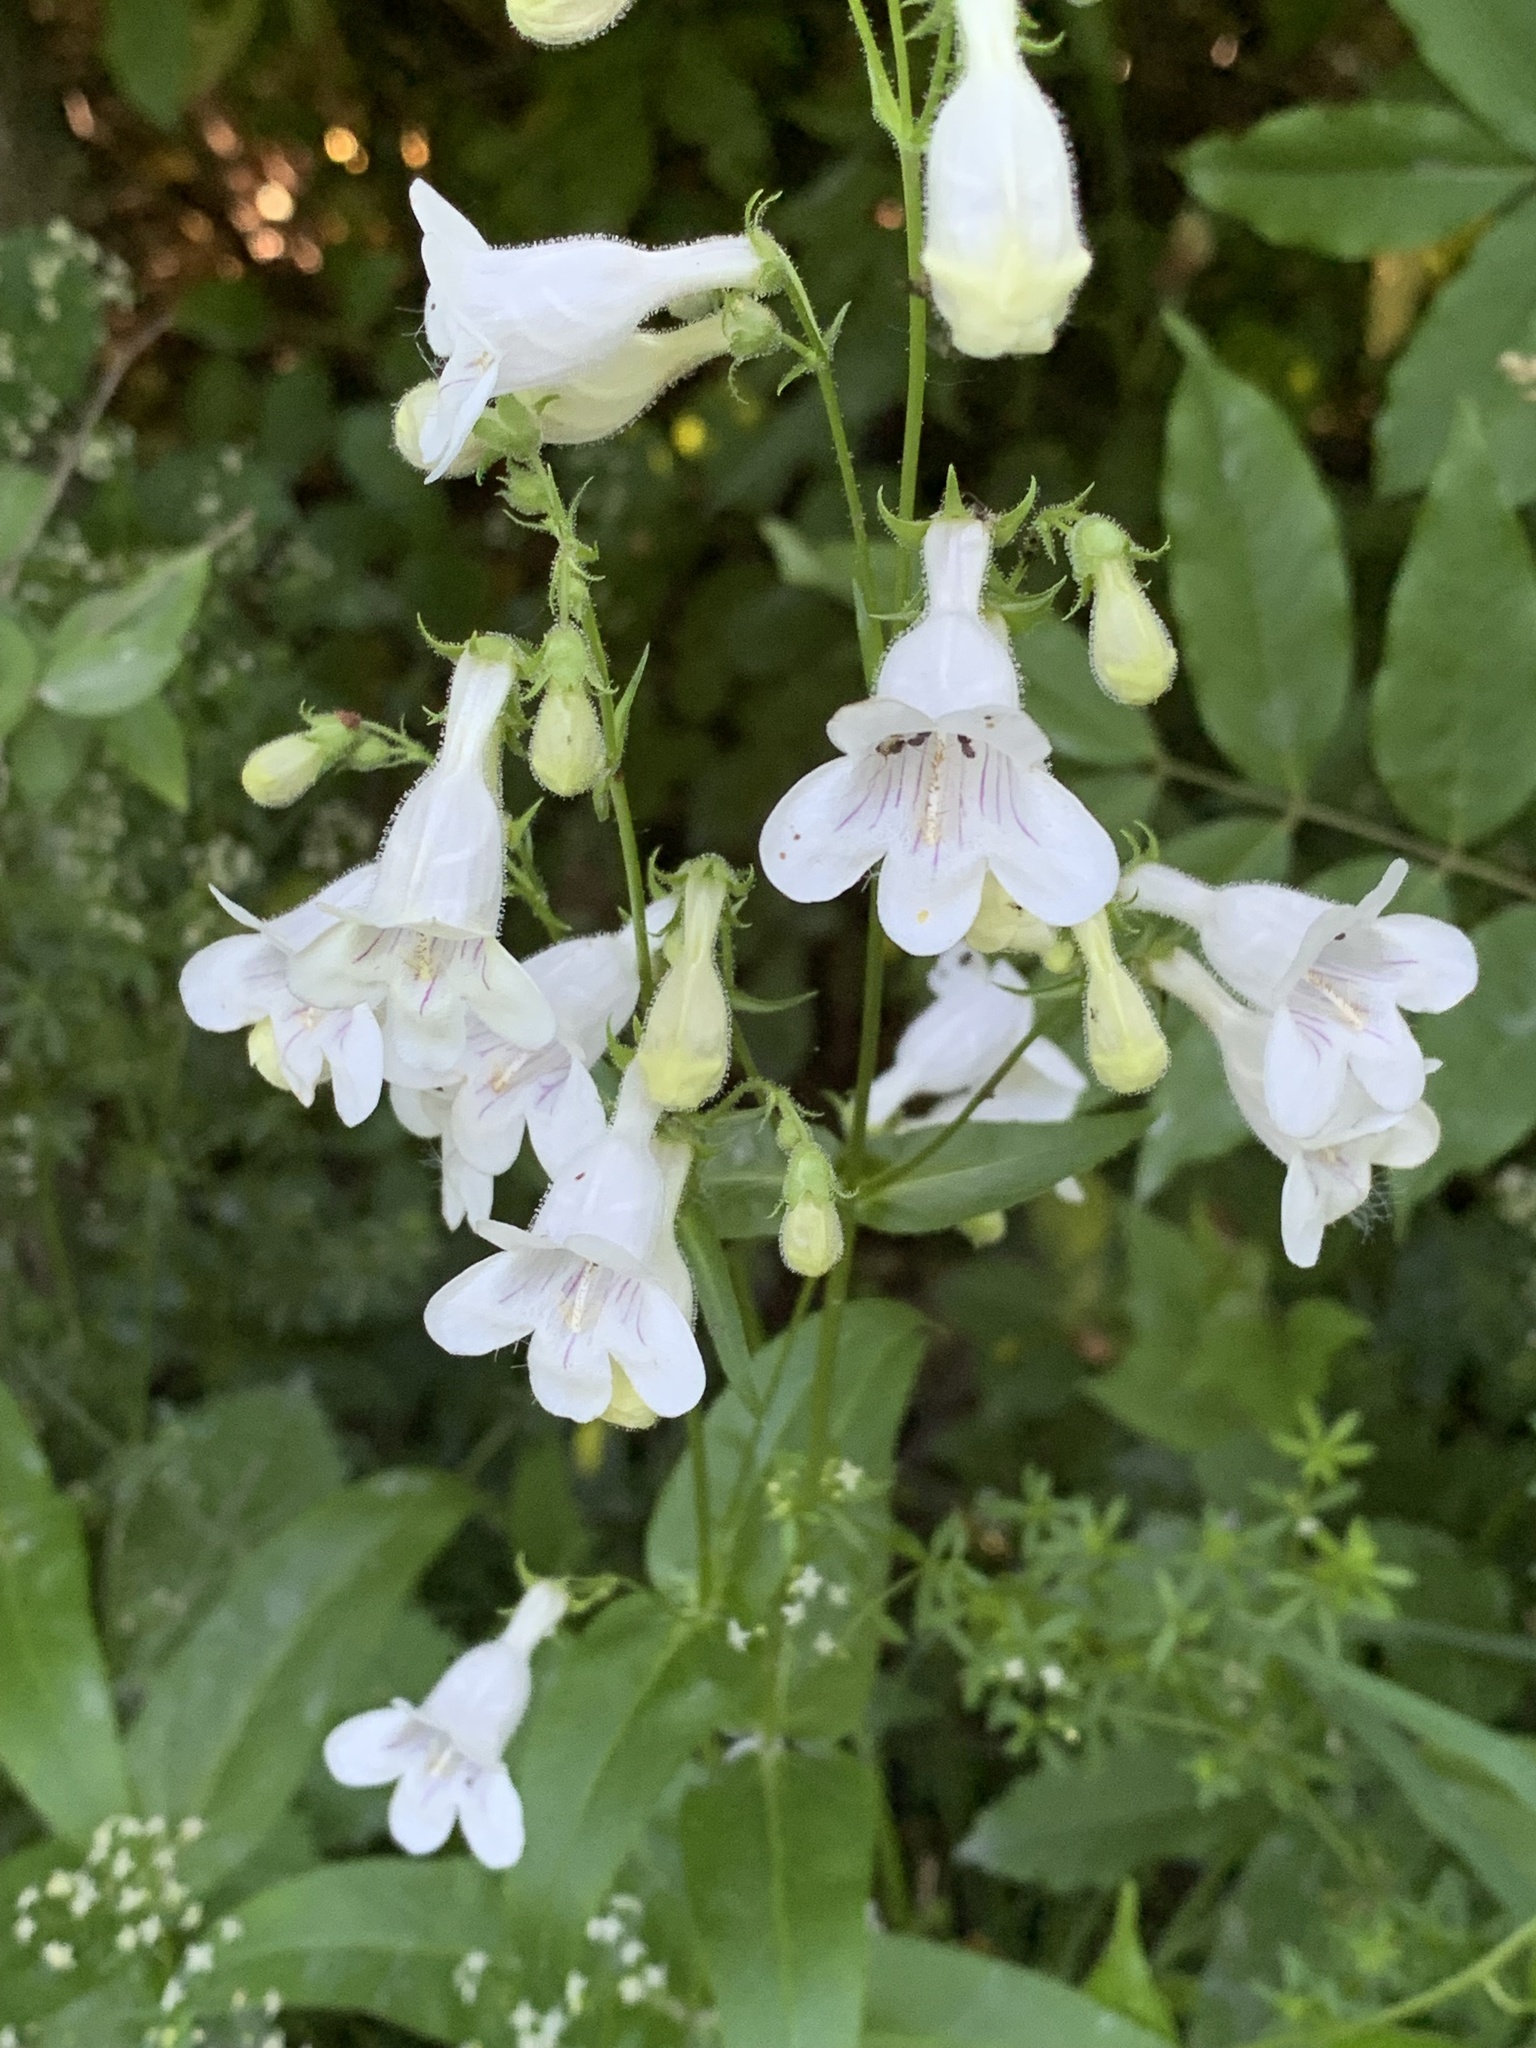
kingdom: Plantae
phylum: Tracheophyta
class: Magnoliopsida
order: Lamiales
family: Plantaginaceae
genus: Penstemon
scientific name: Penstemon digitalis
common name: Foxglove beardtongue
